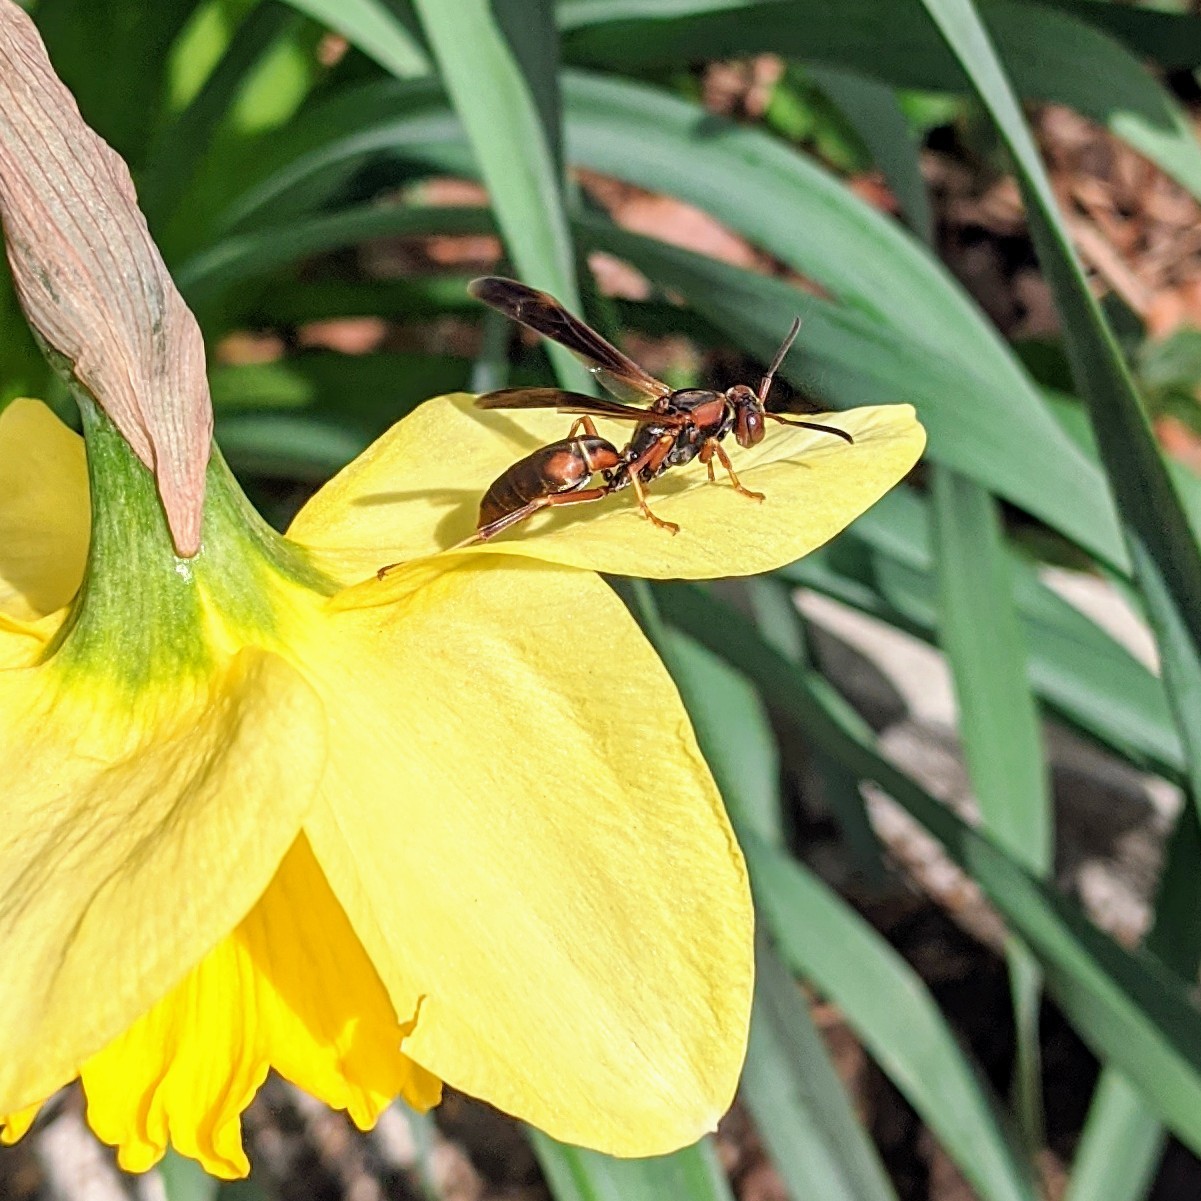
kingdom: Animalia
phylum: Arthropoda
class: Insecta
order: Hymenoptera
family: Eumenidae
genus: Polistes
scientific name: Polistes fuscatus
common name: Dark paper wasp
